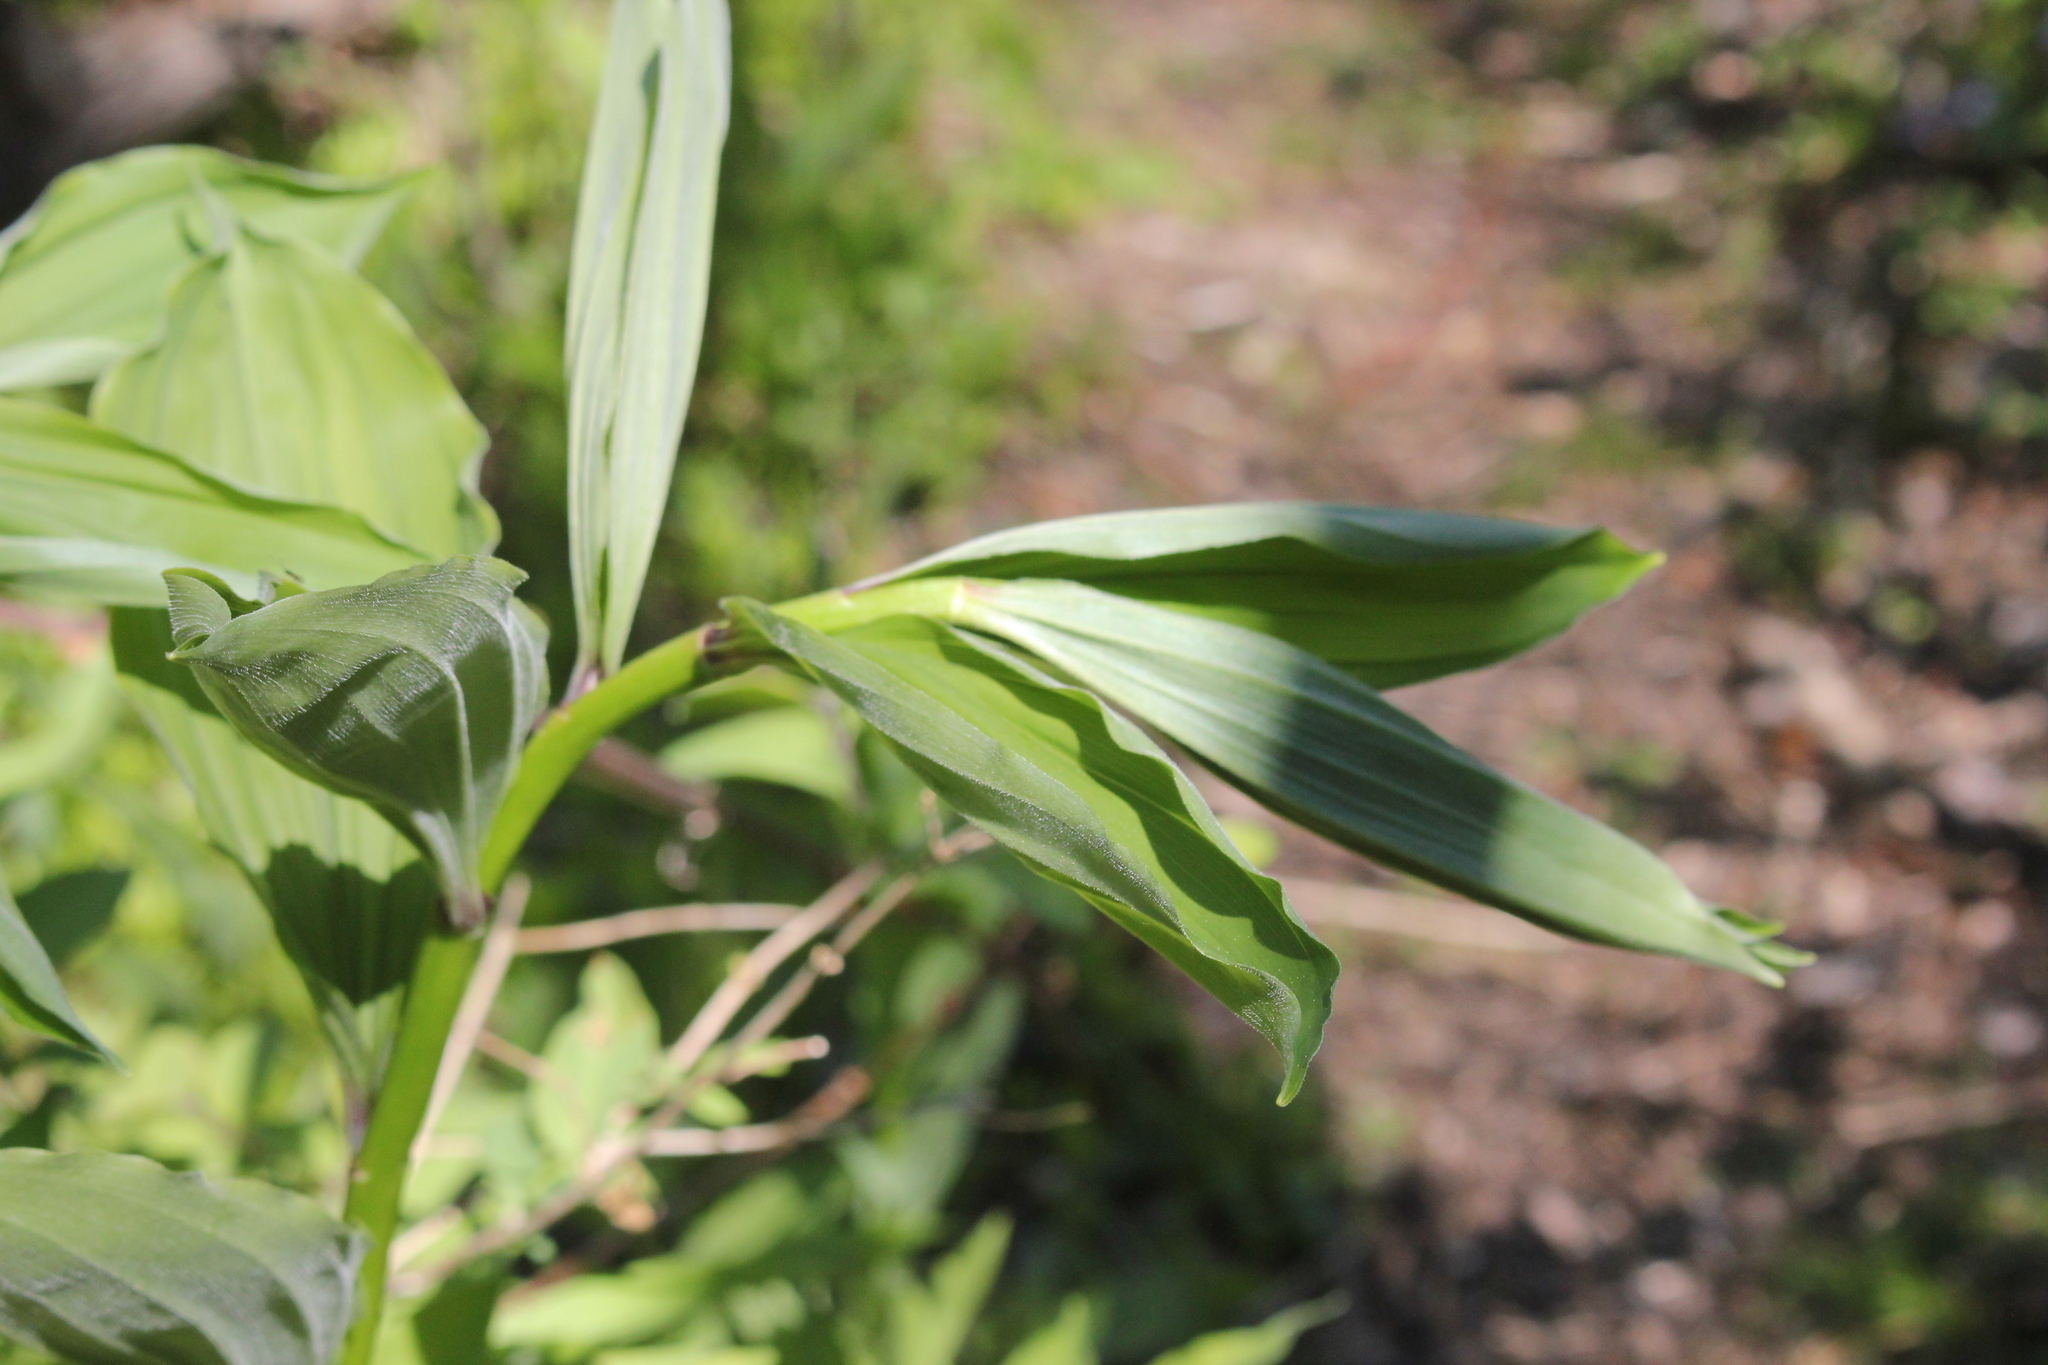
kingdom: Plantae
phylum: Tracheophyta
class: Liliopsida
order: Asparagales
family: Asparagaceae
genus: Maianthemum
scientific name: Maianthemum racemosum
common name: False spikenard
